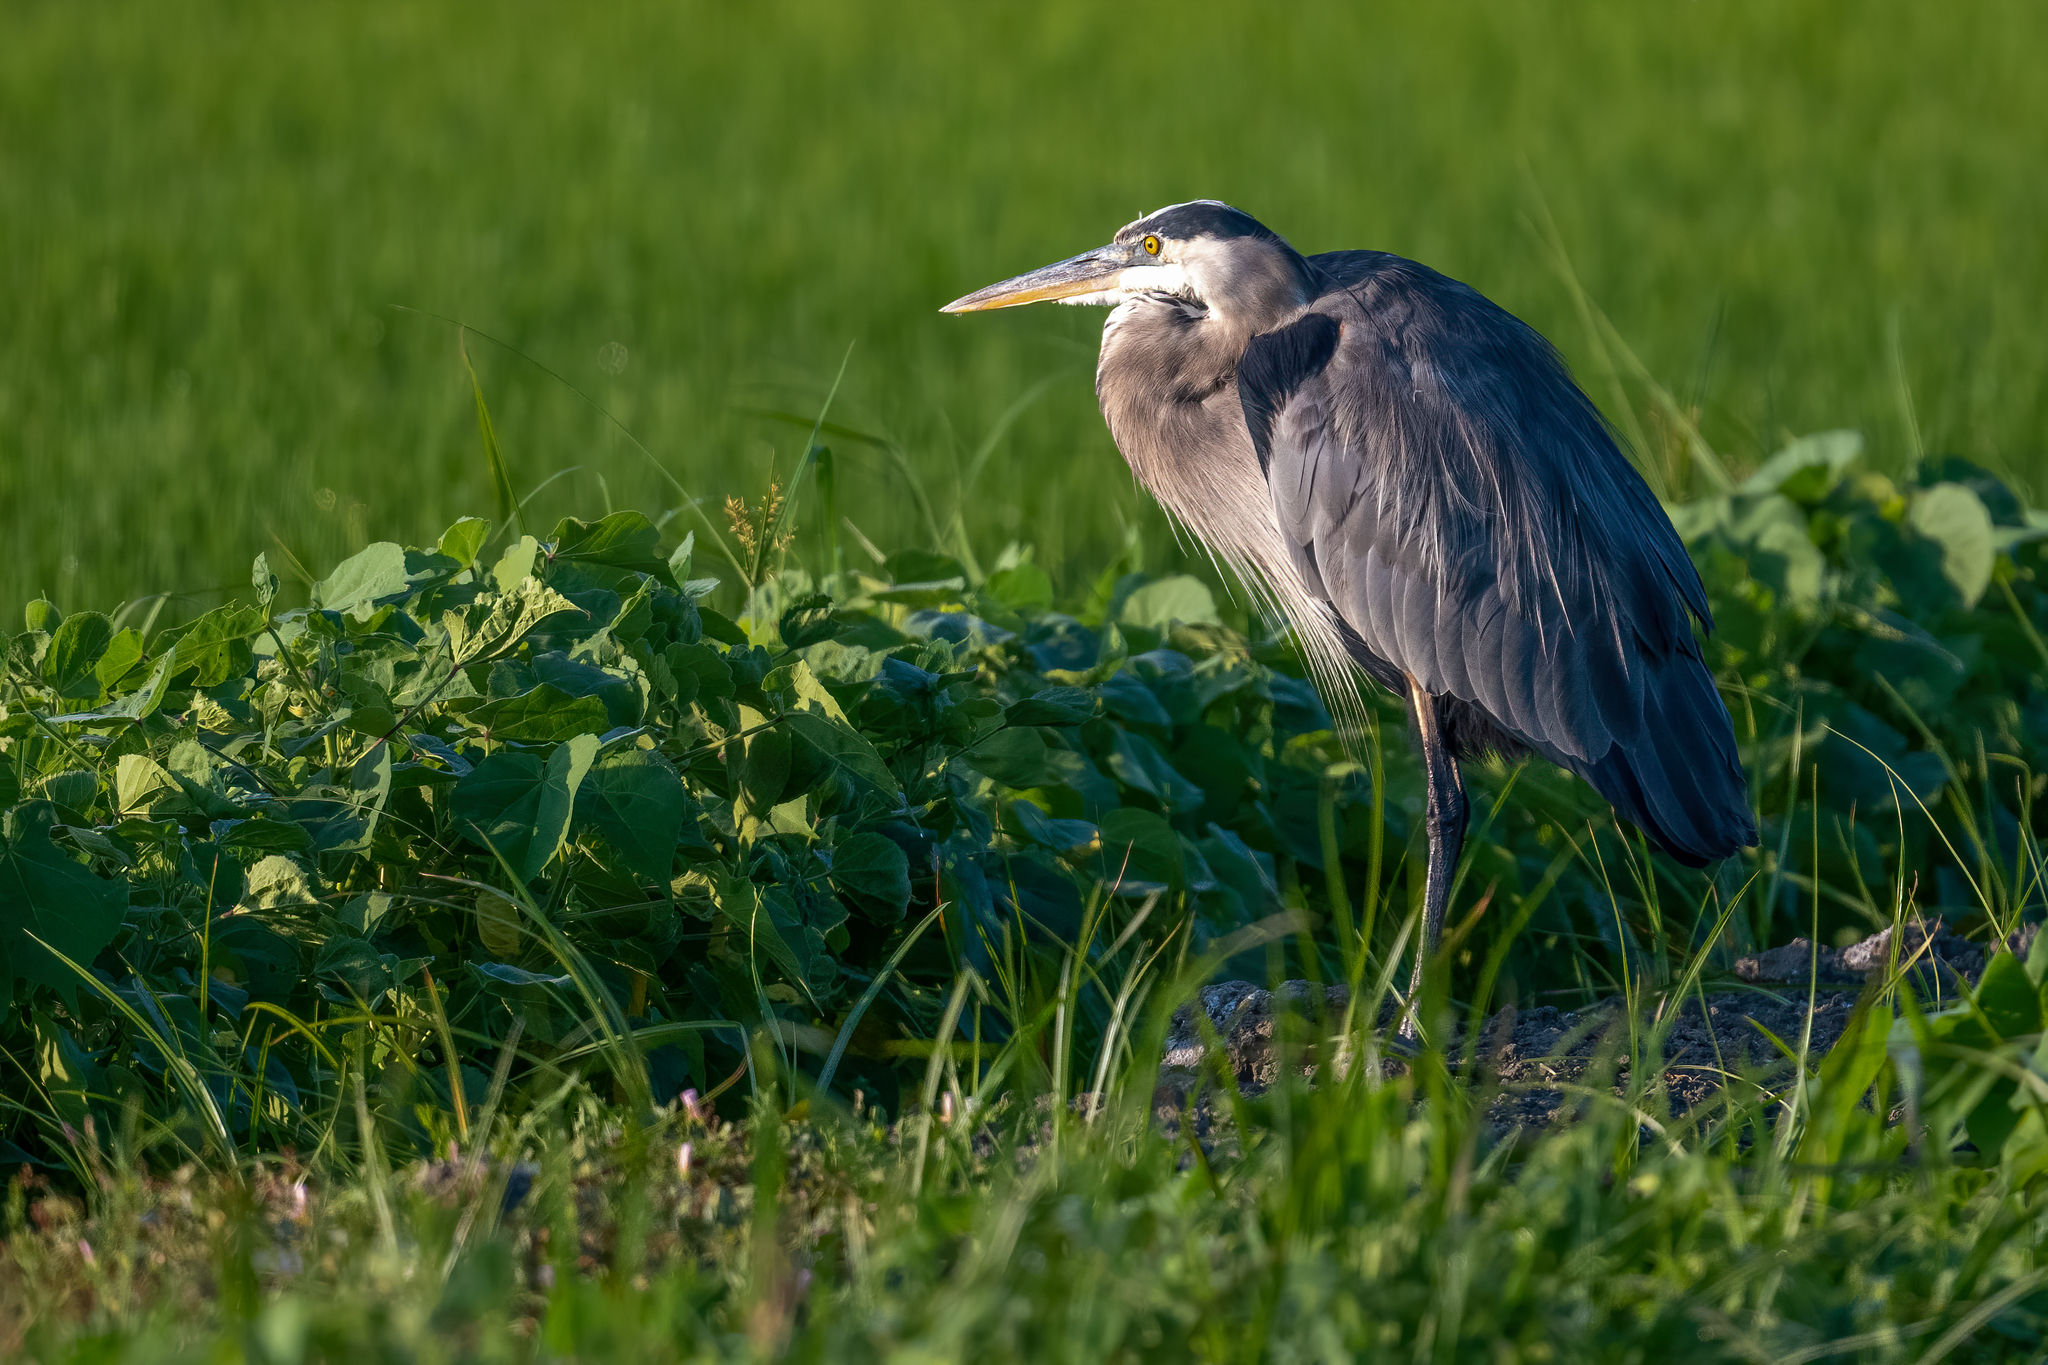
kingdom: Animalia
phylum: Chordata
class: Aves
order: Pelecaniformes
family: Ardeidae
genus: Ardea
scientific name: Ardea herodias
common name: Great blue heron
